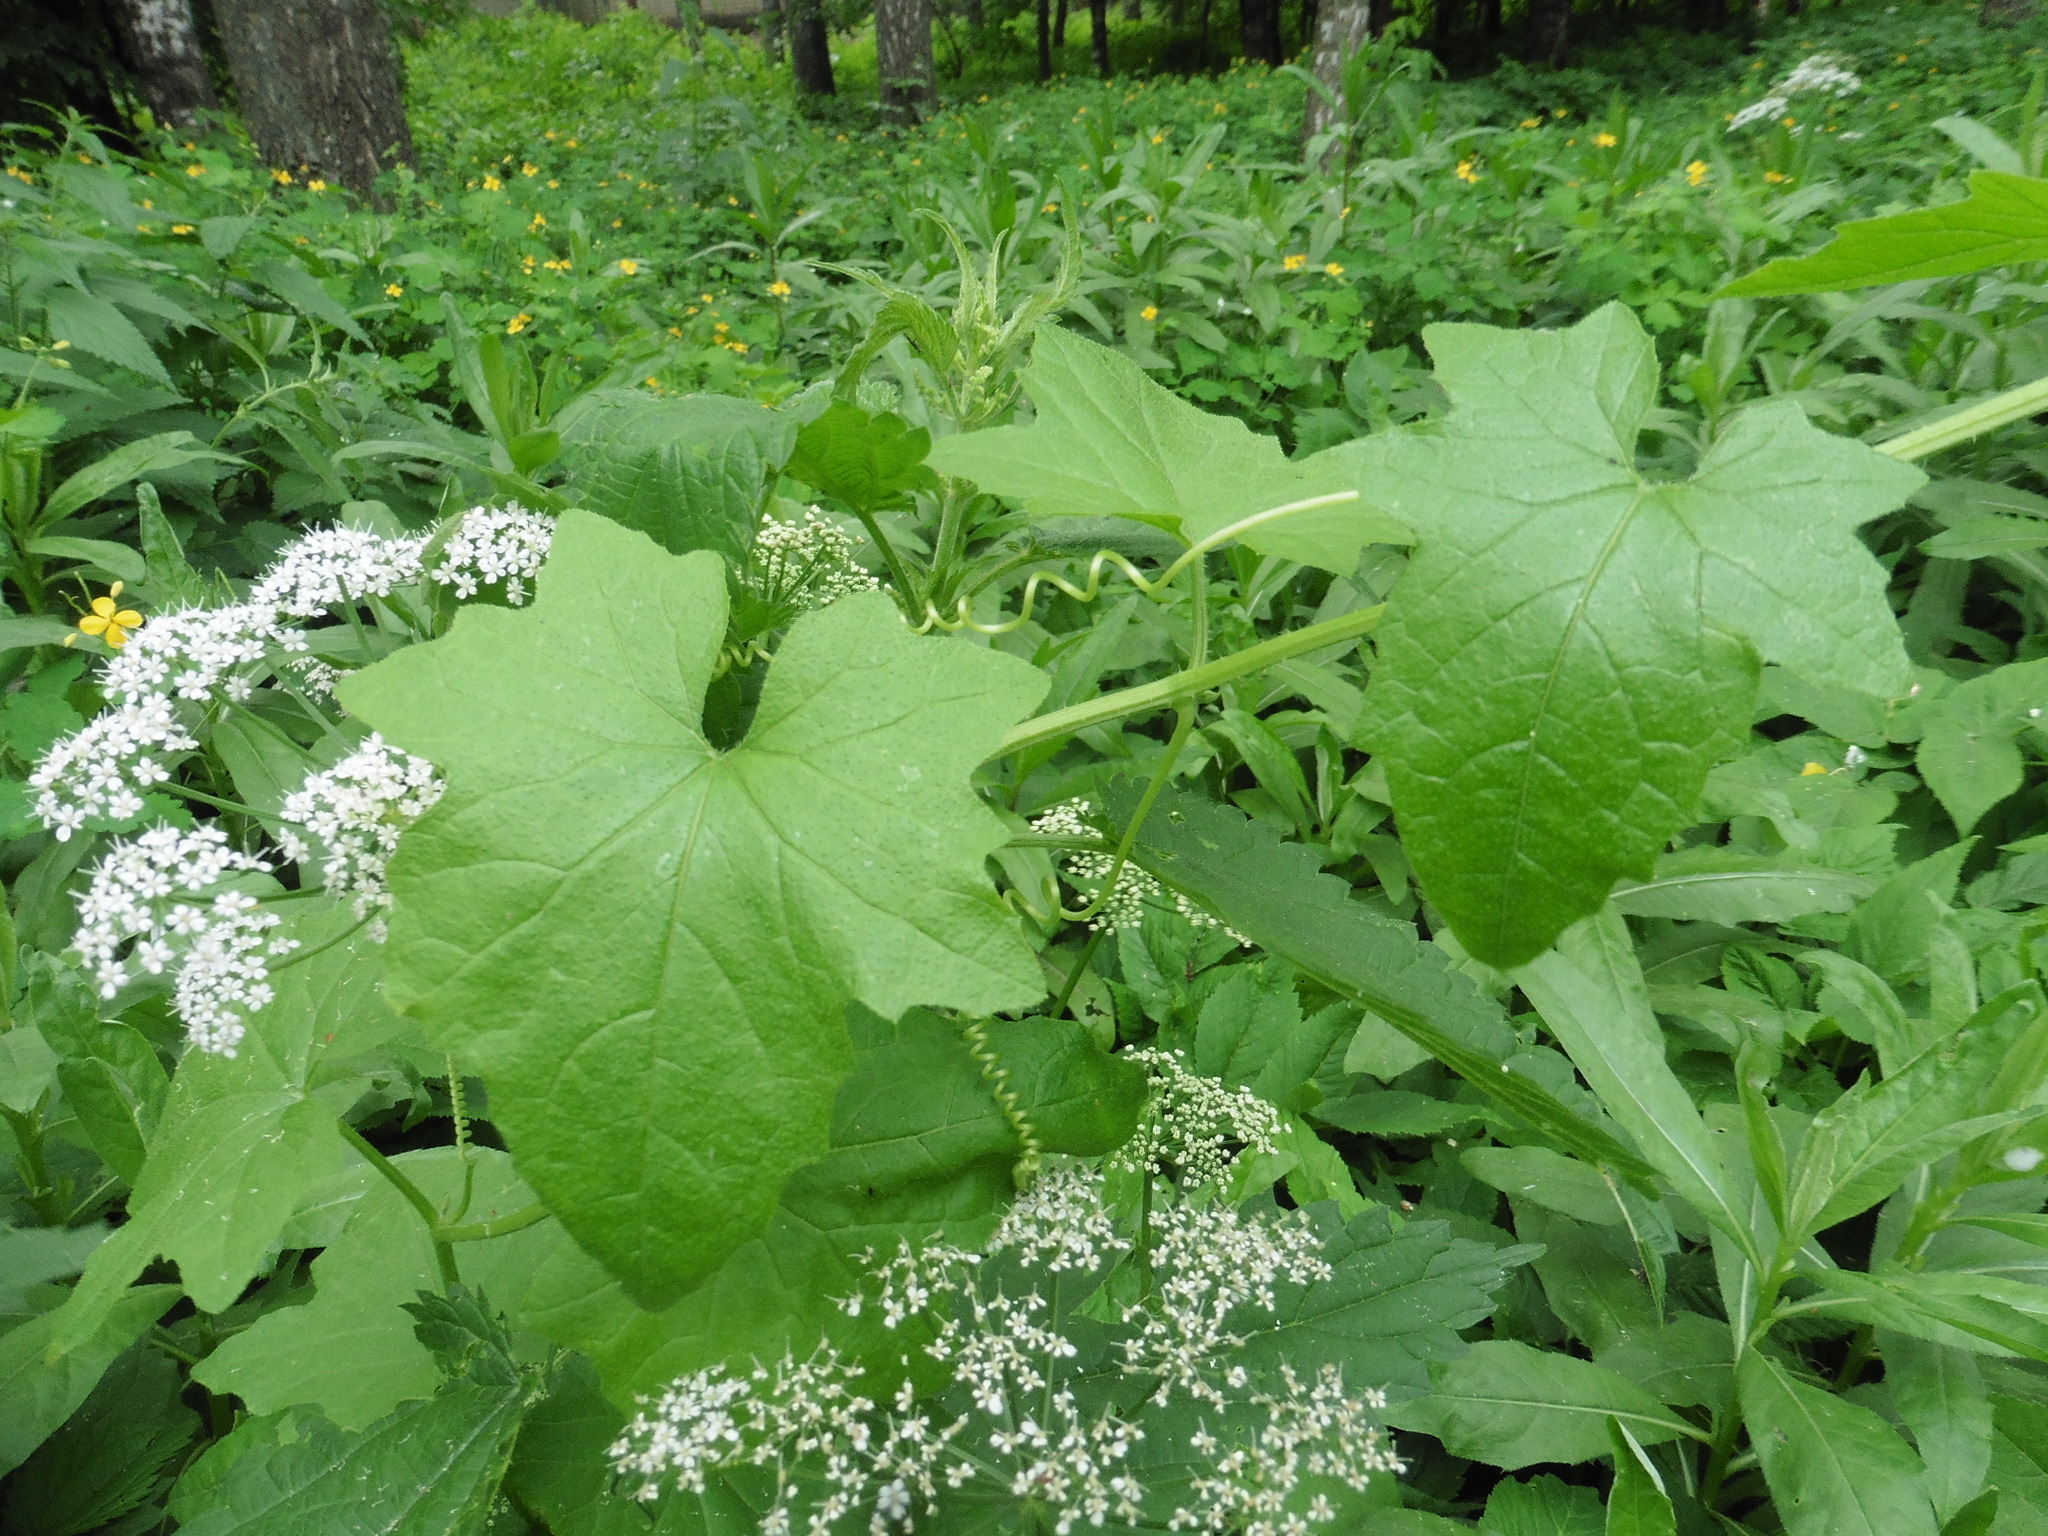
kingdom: Plantae
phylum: Tracheophyta
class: Magnoliopsida
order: Cucurbitales
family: Cucurbitaceae
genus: Bryonia
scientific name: Bryonia alba
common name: White bryony
